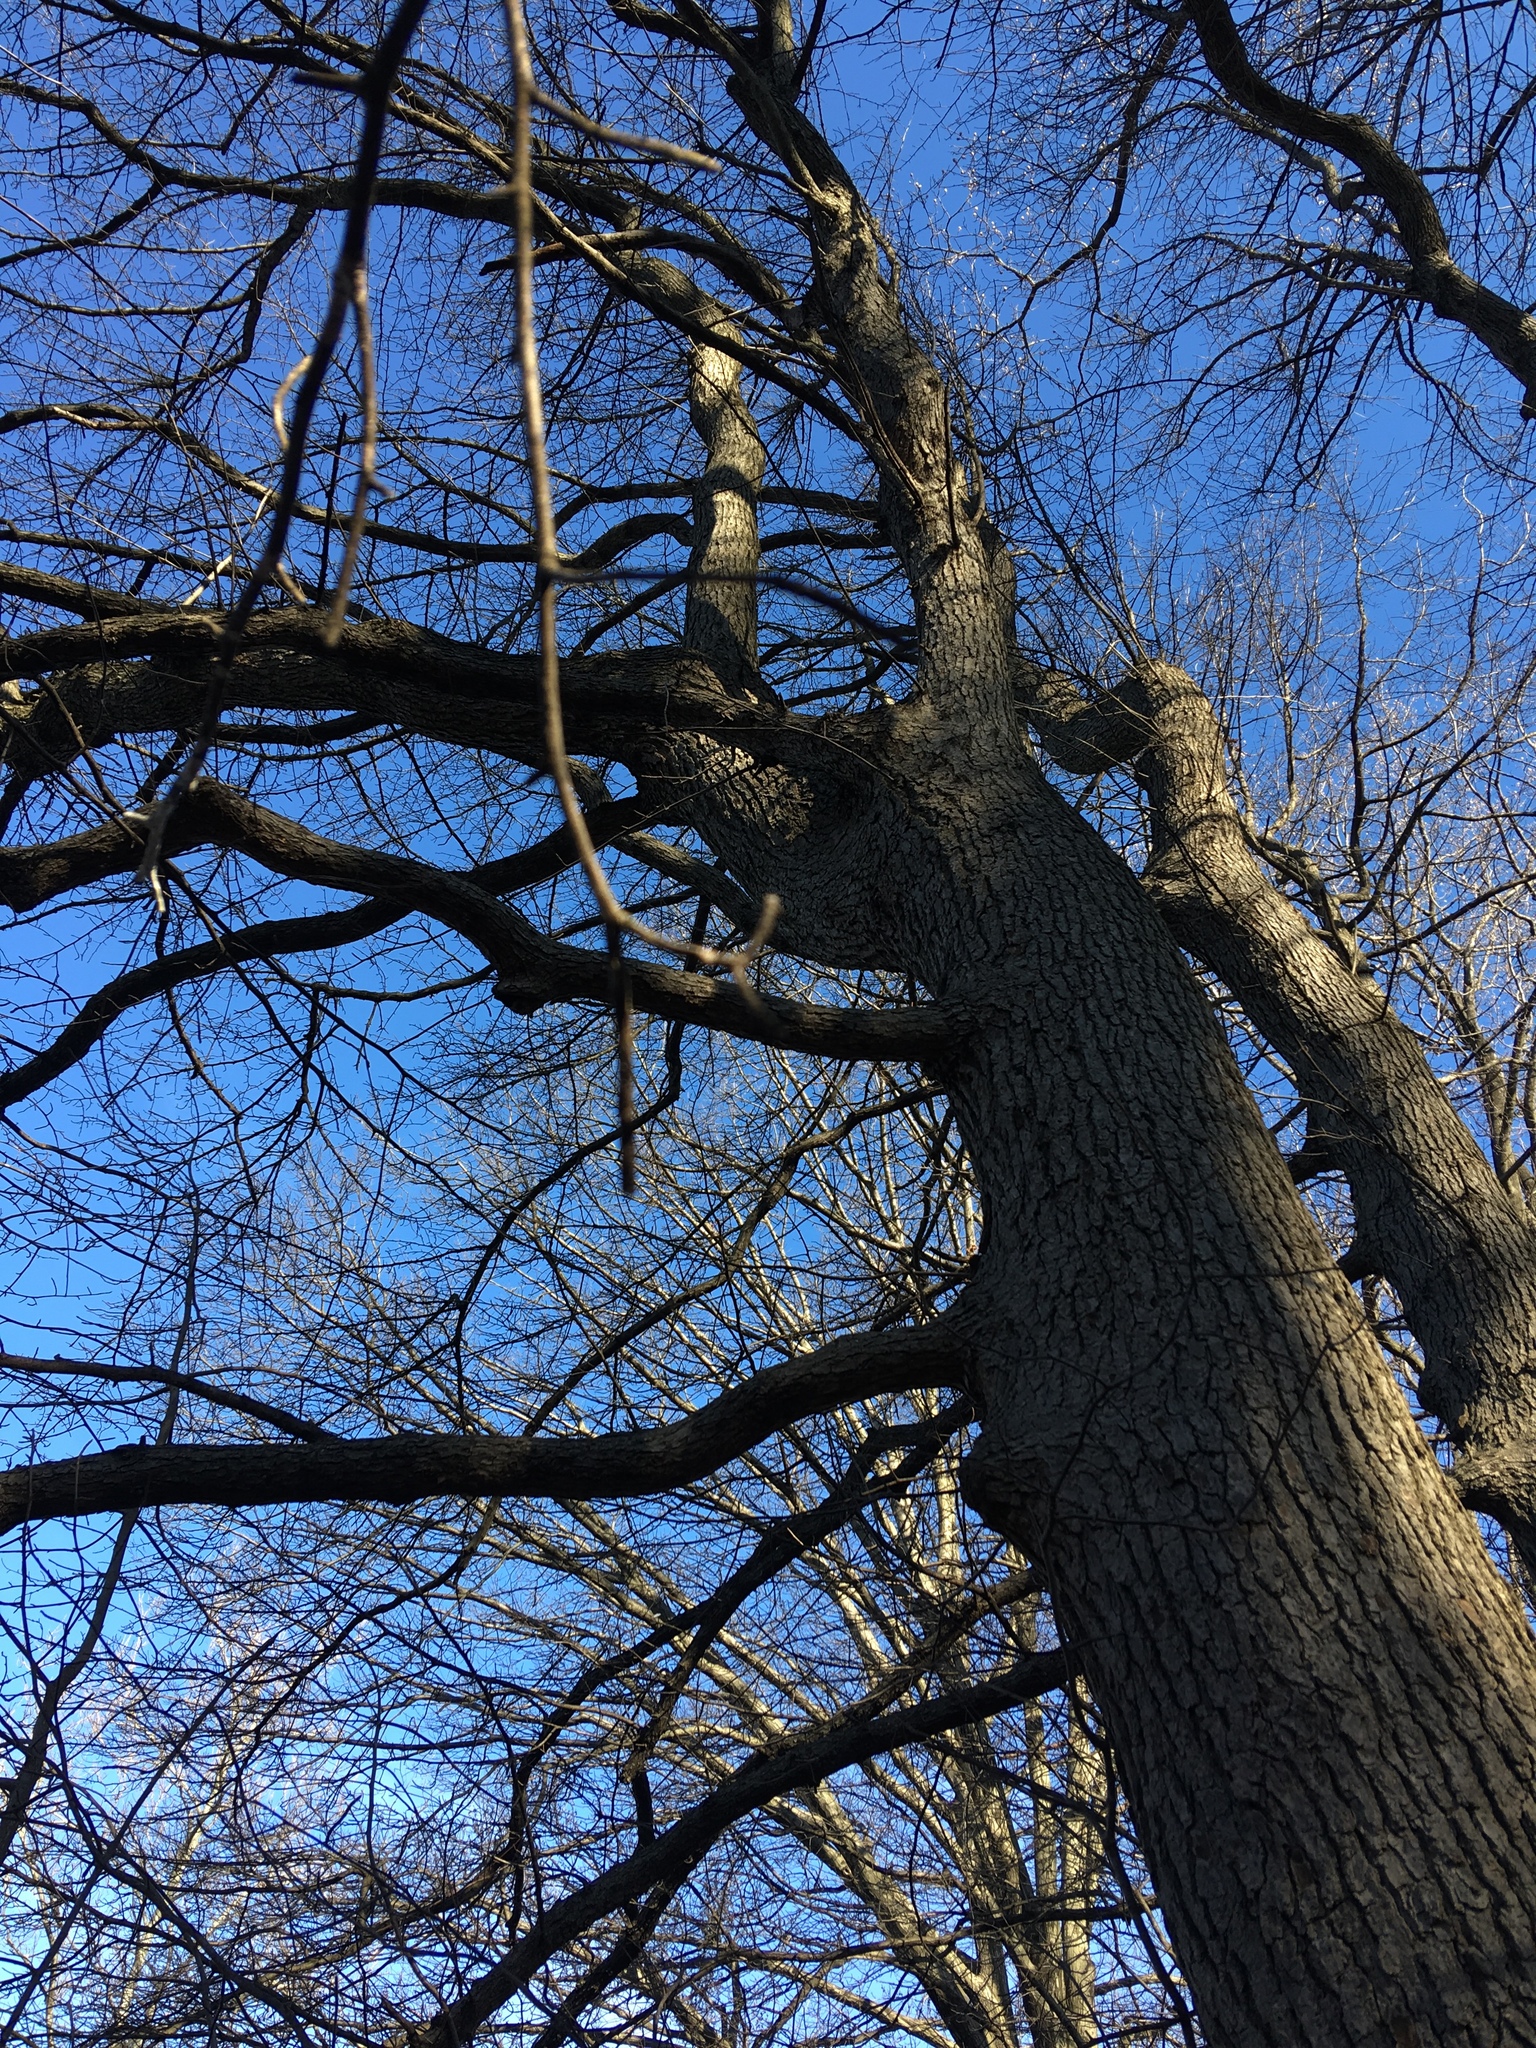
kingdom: Plantae
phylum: Tracheophyta
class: Magnoliopsida
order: Cornales
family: Nyssaceae
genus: Nyssa
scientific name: Nyssa sylvatica
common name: Black tupelo
